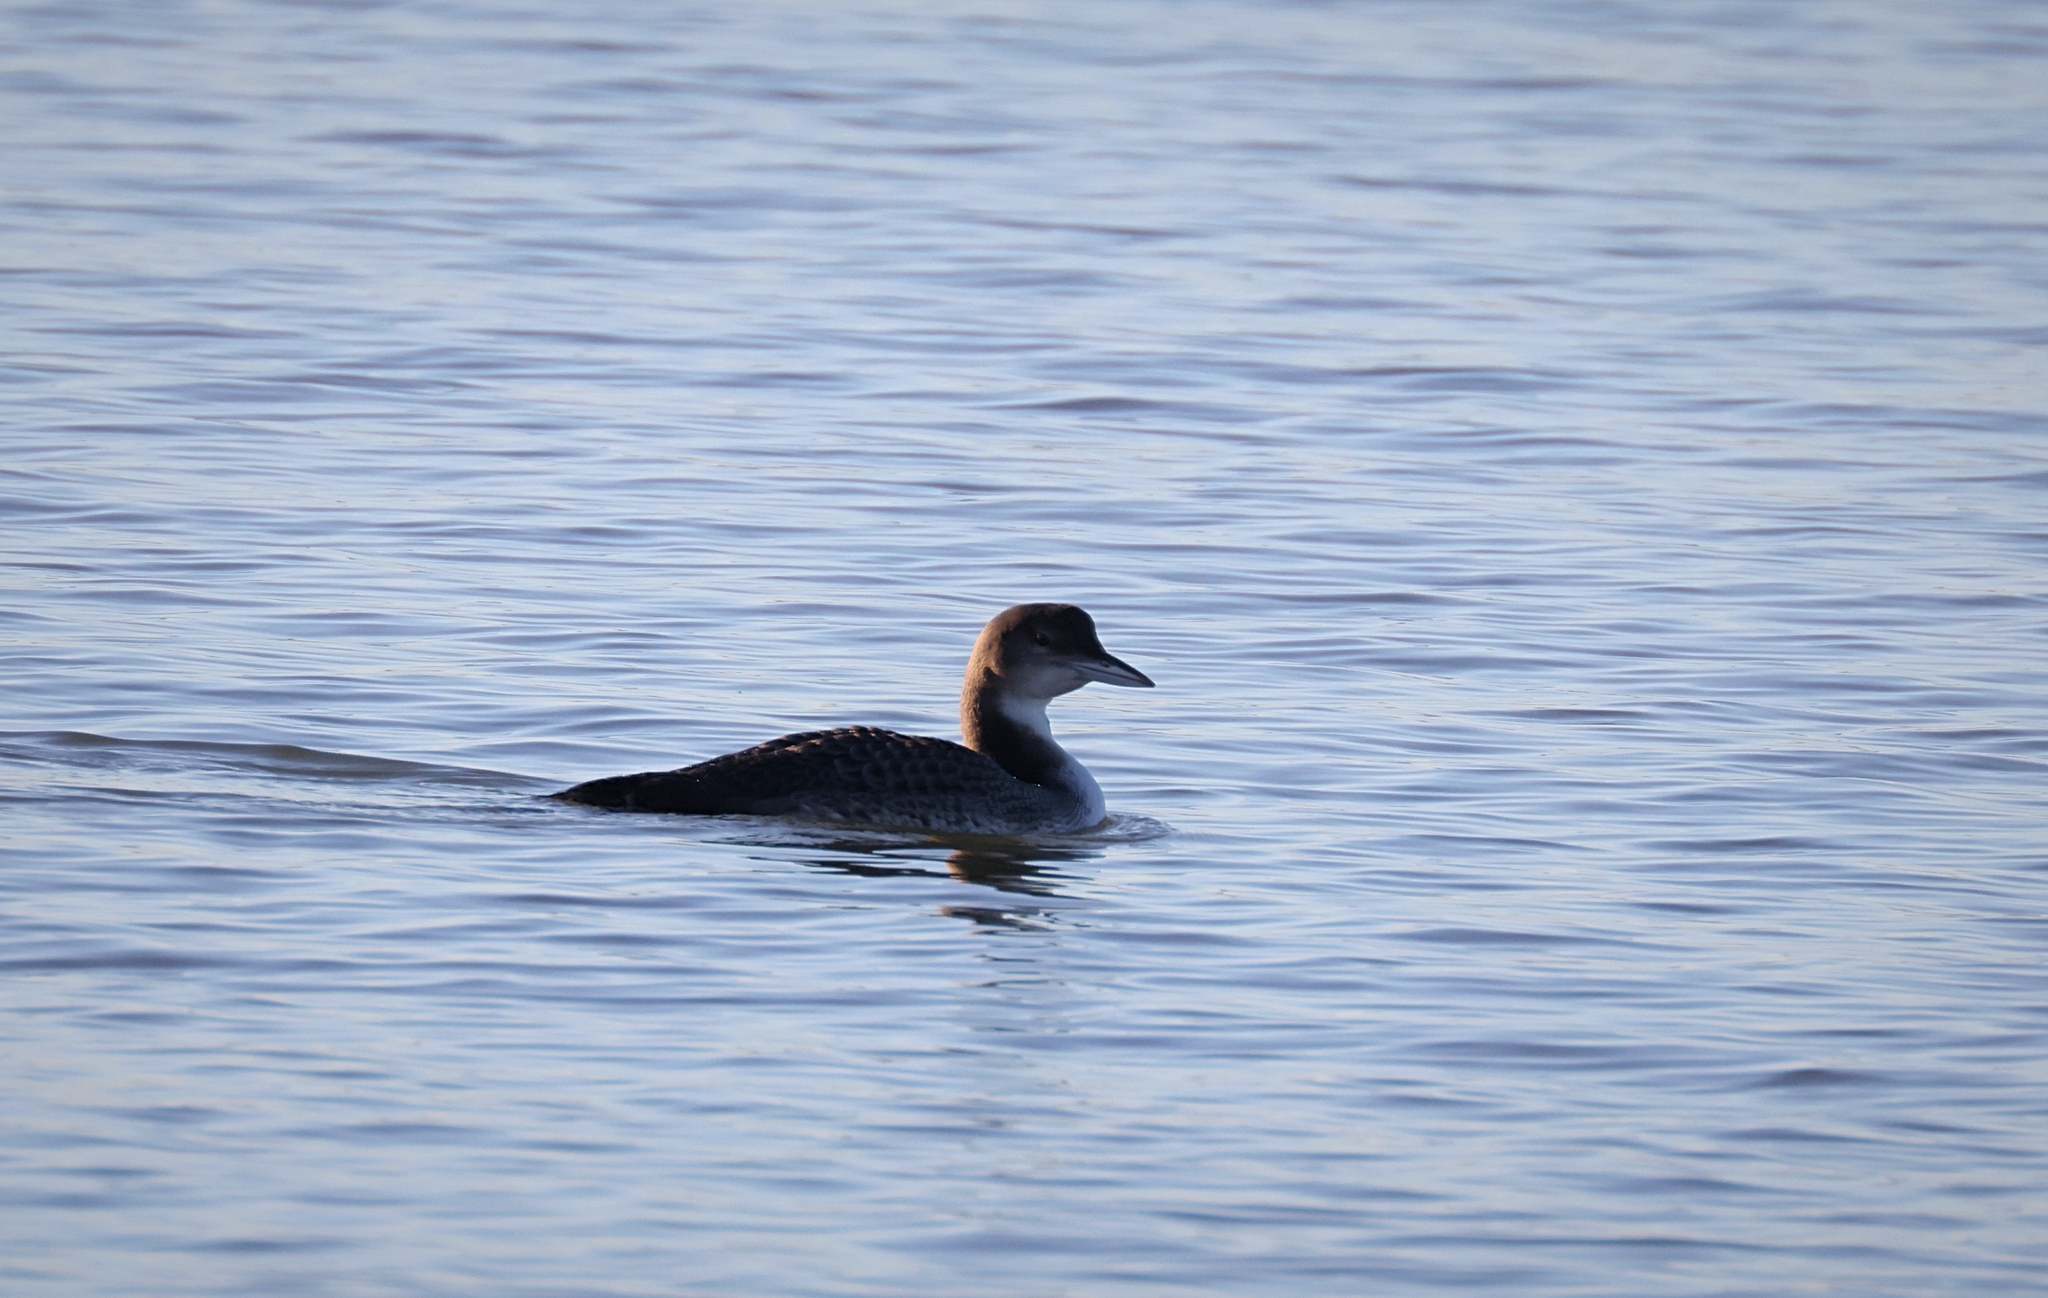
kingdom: Animalia
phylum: Chordata
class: Aves
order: Gaviiformes
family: Gaviidae
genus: Gavia
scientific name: Gavia immer
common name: Common loon
